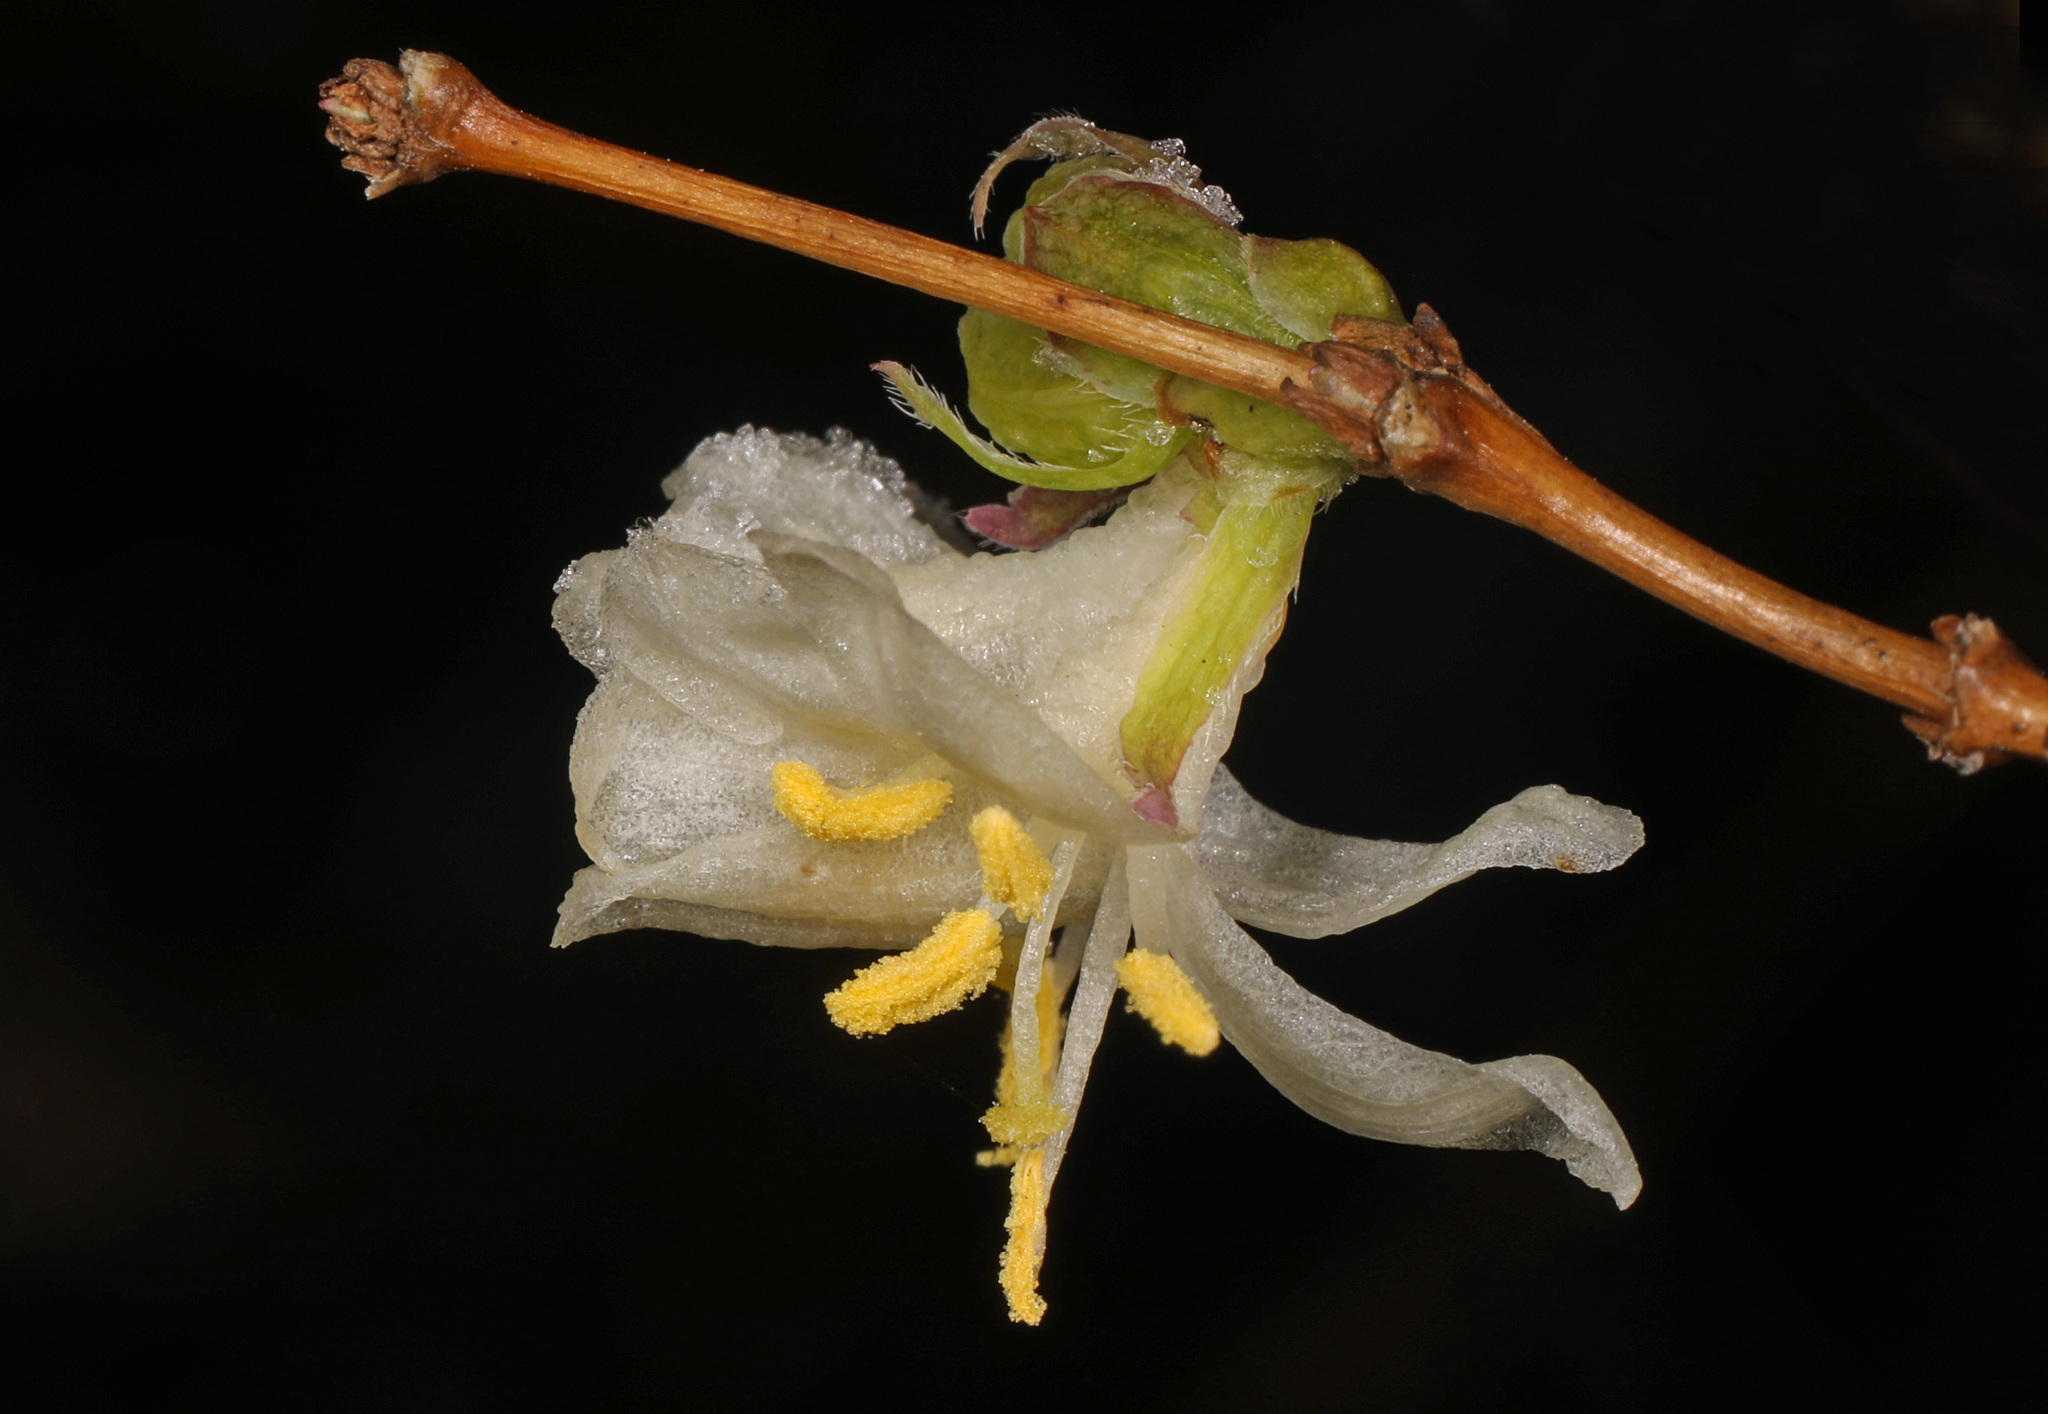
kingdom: Plantae
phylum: Tracheophyta
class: Magnoliopsida
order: Dipsacales
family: Caprifoliaceae
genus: Lonicera
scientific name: Lonicera fragrantissima
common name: Fragrant honeysuckle
